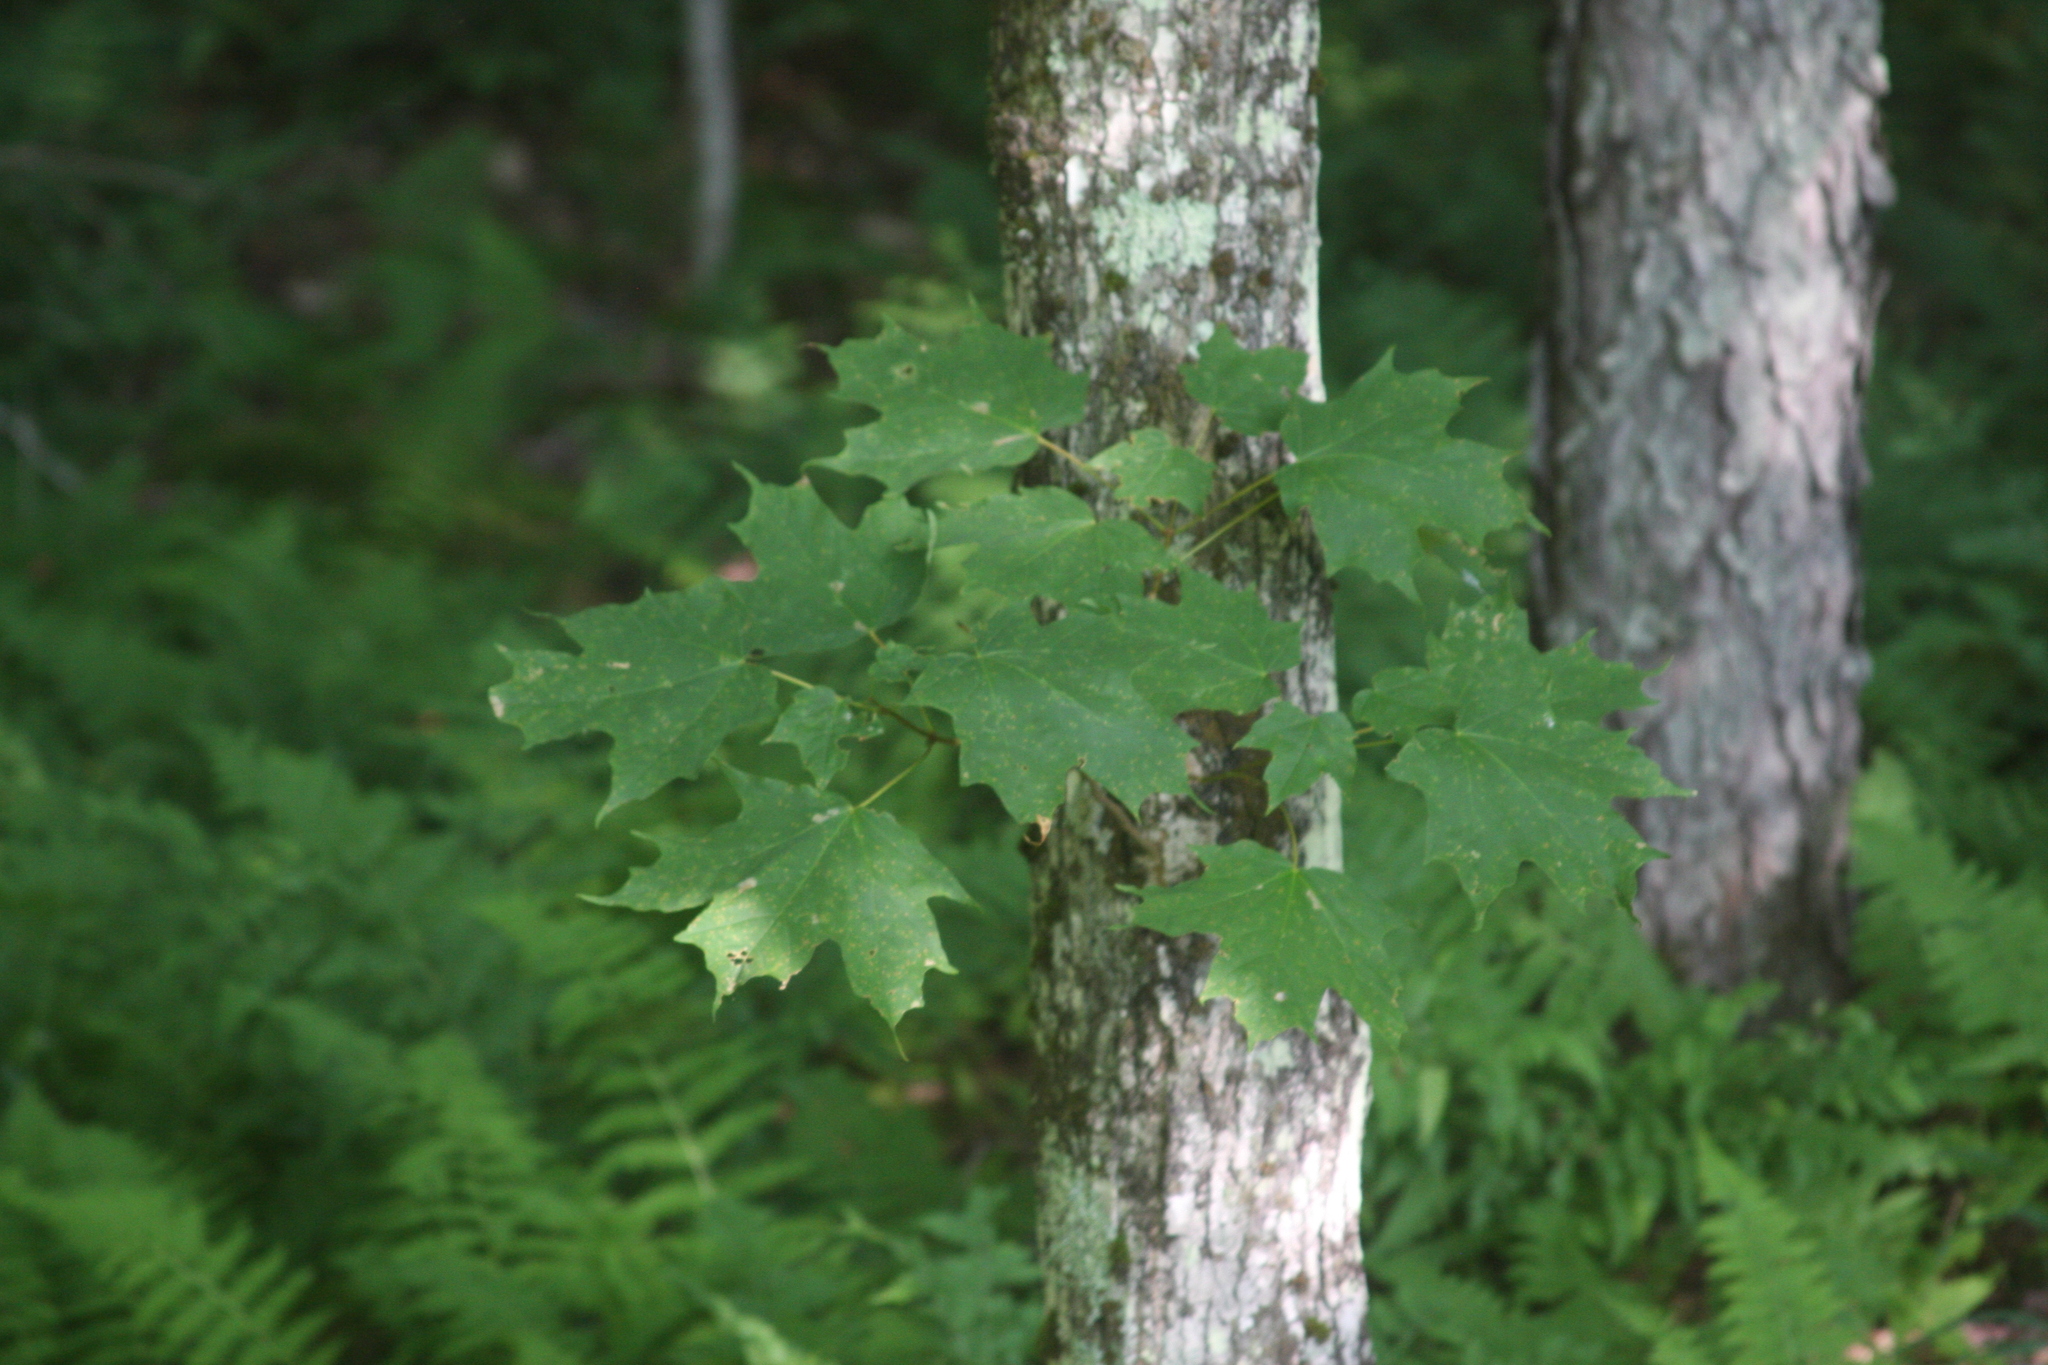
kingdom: Plantae
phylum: Tracheophyta
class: Magnoliopsida
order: Sapindales
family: Sapindaceae
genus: Acer
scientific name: Acer saccharum
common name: Sugar maple
